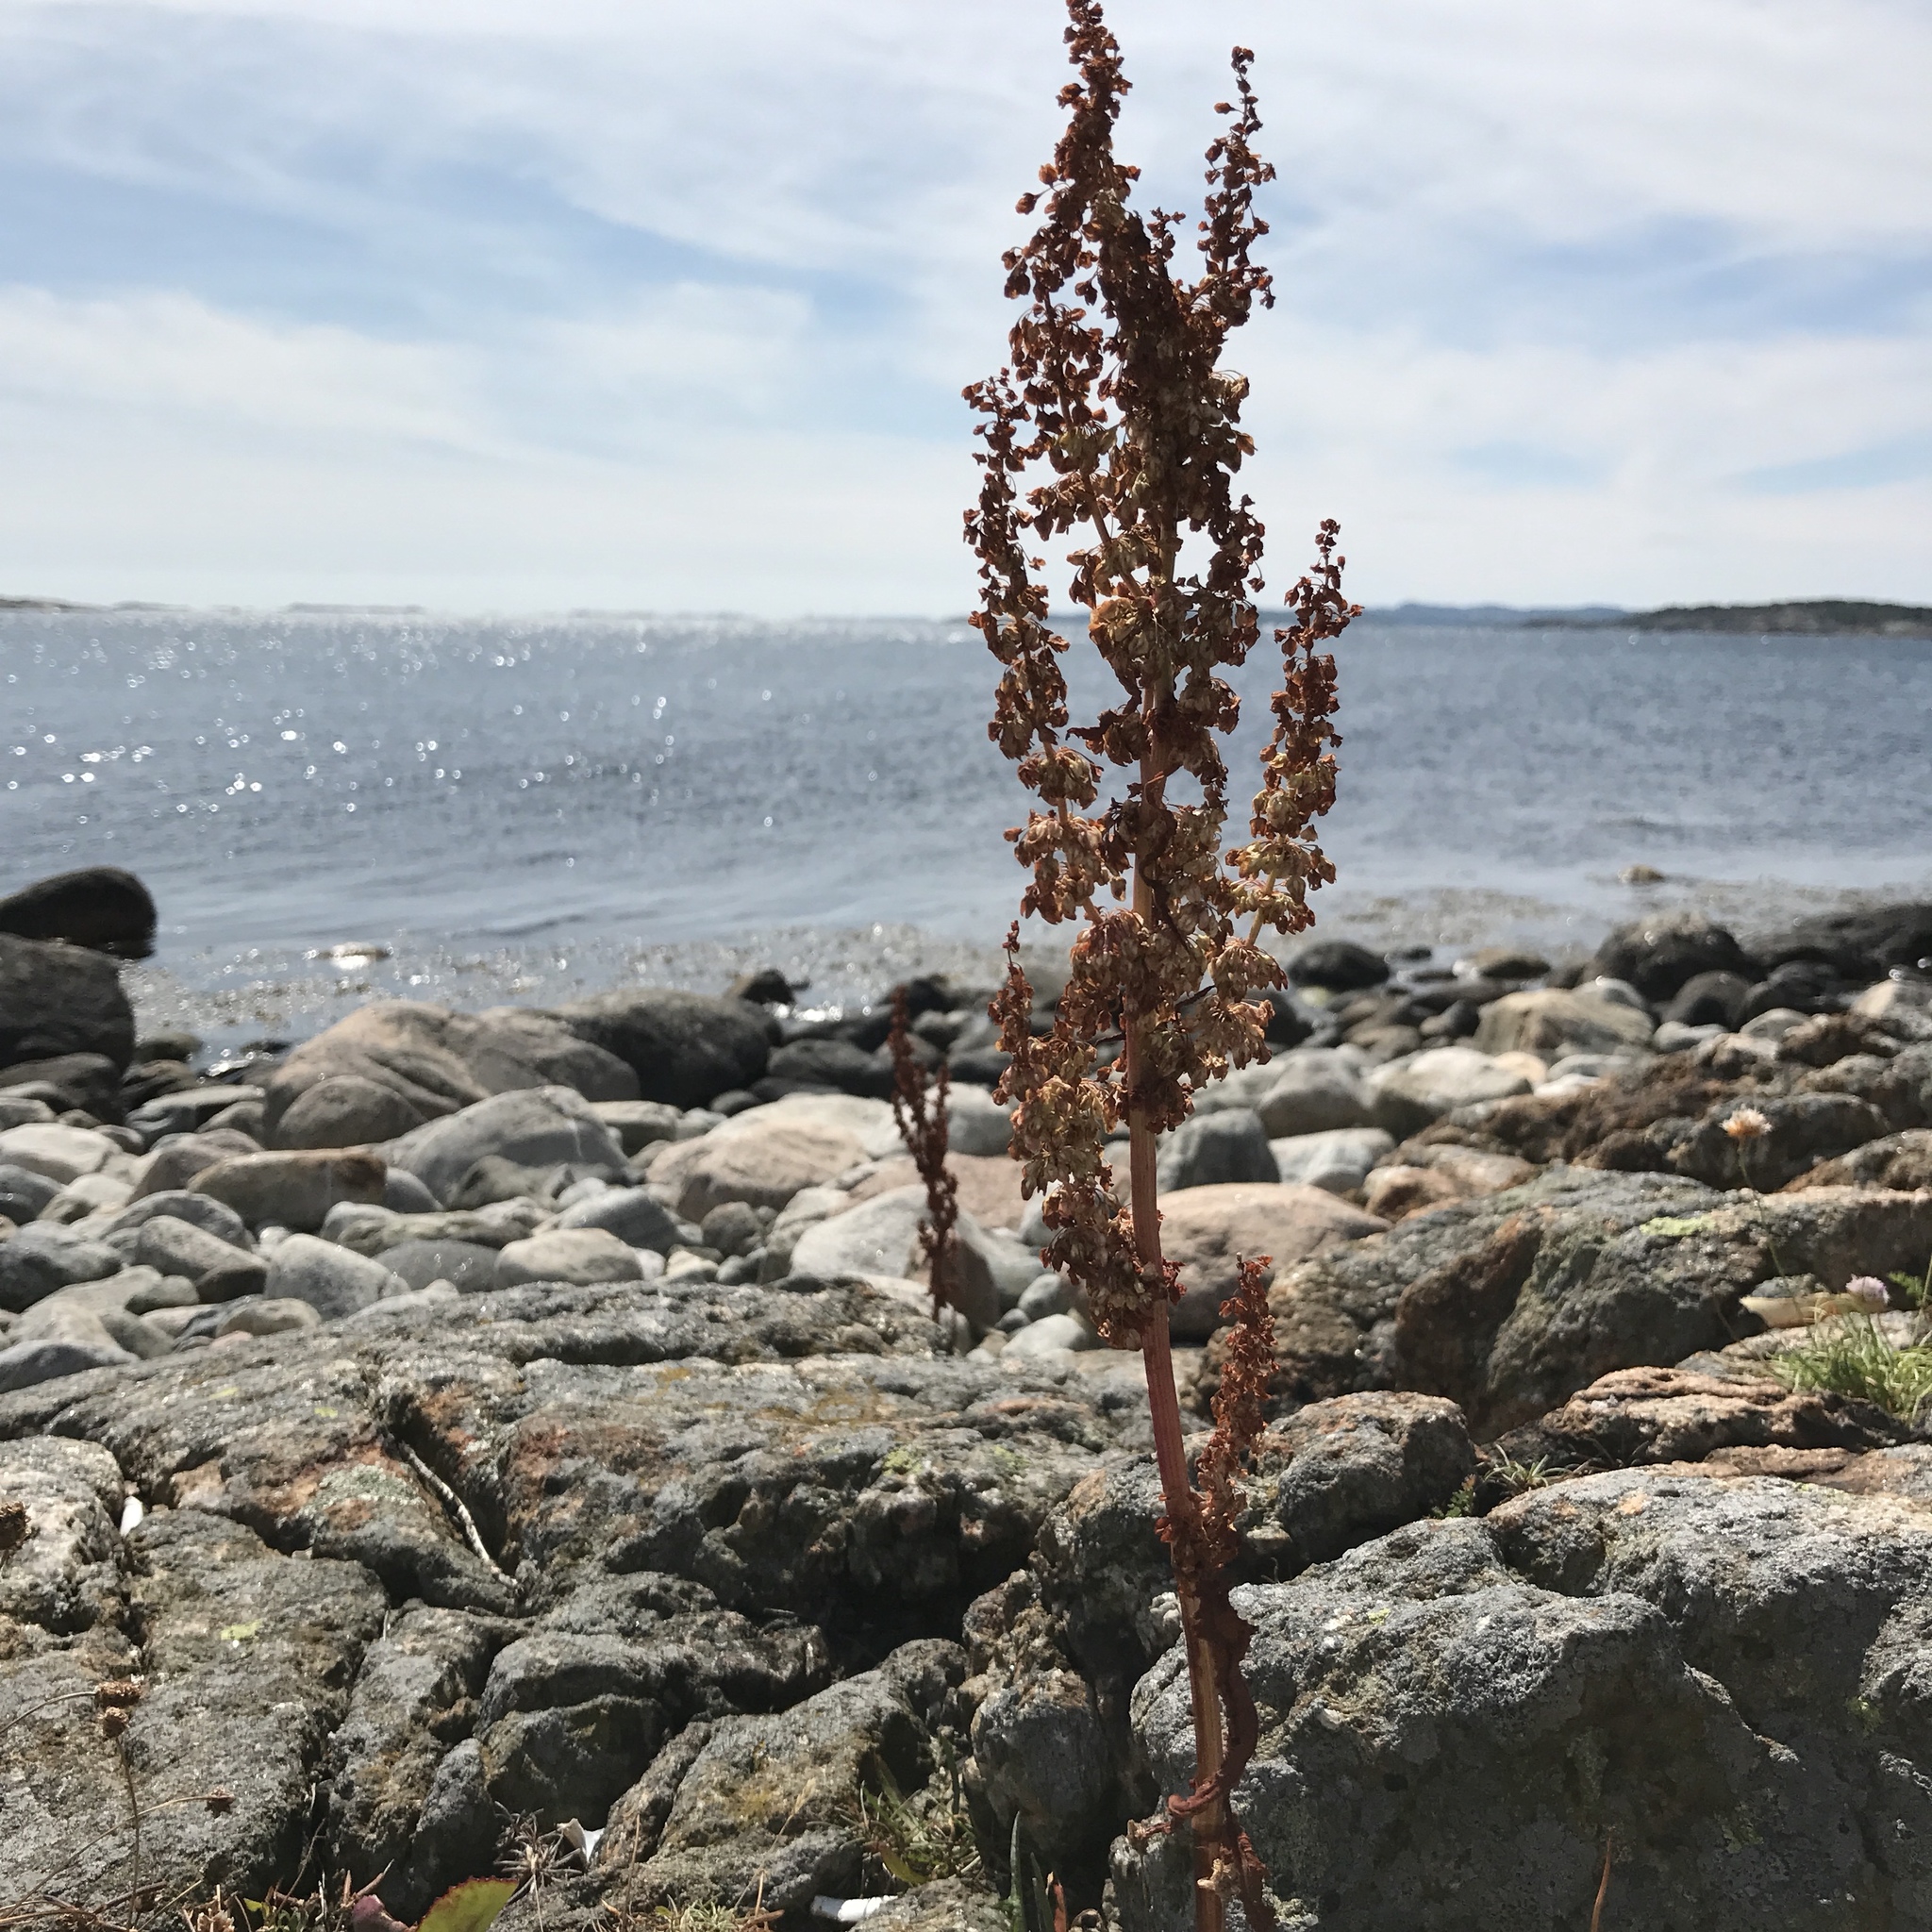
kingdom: Plantae
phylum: Tracheophyta
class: Magnoliopsida
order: Caryophyllales
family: Polygonaceae
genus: Rumex
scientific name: Rumex crispus
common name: Curled dock
